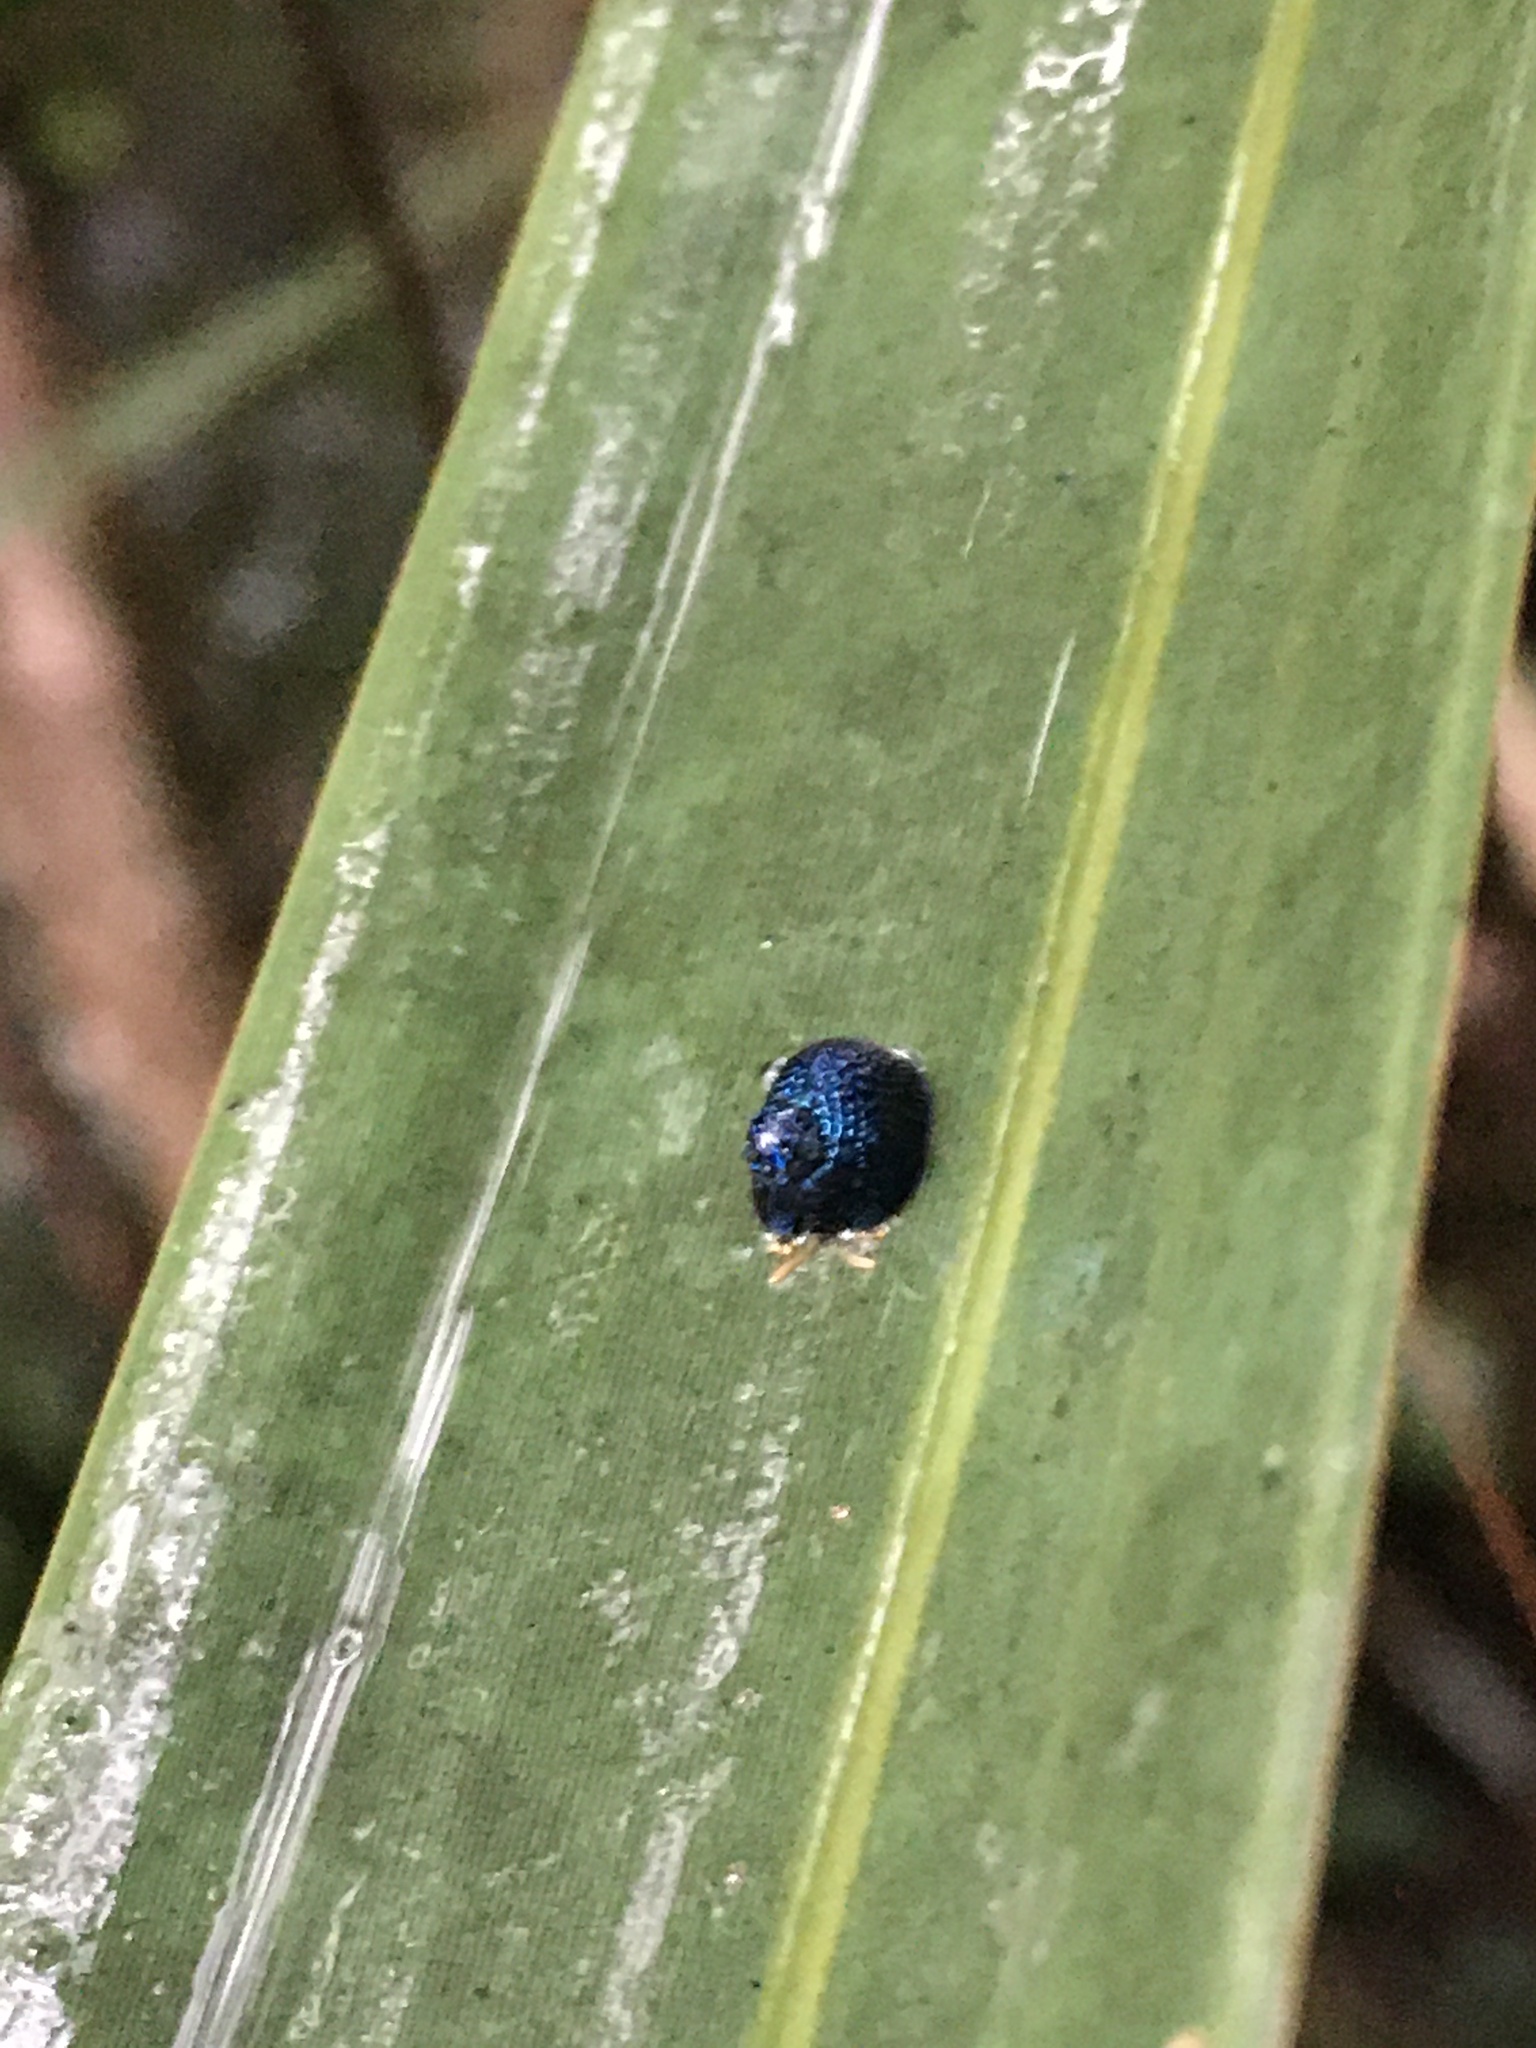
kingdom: Animalia
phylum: Arthropoda
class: Insecta
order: Coleoptera
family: Chrysomelidae
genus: Hemisphaerota
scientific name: Hemisphaerota cyanea
